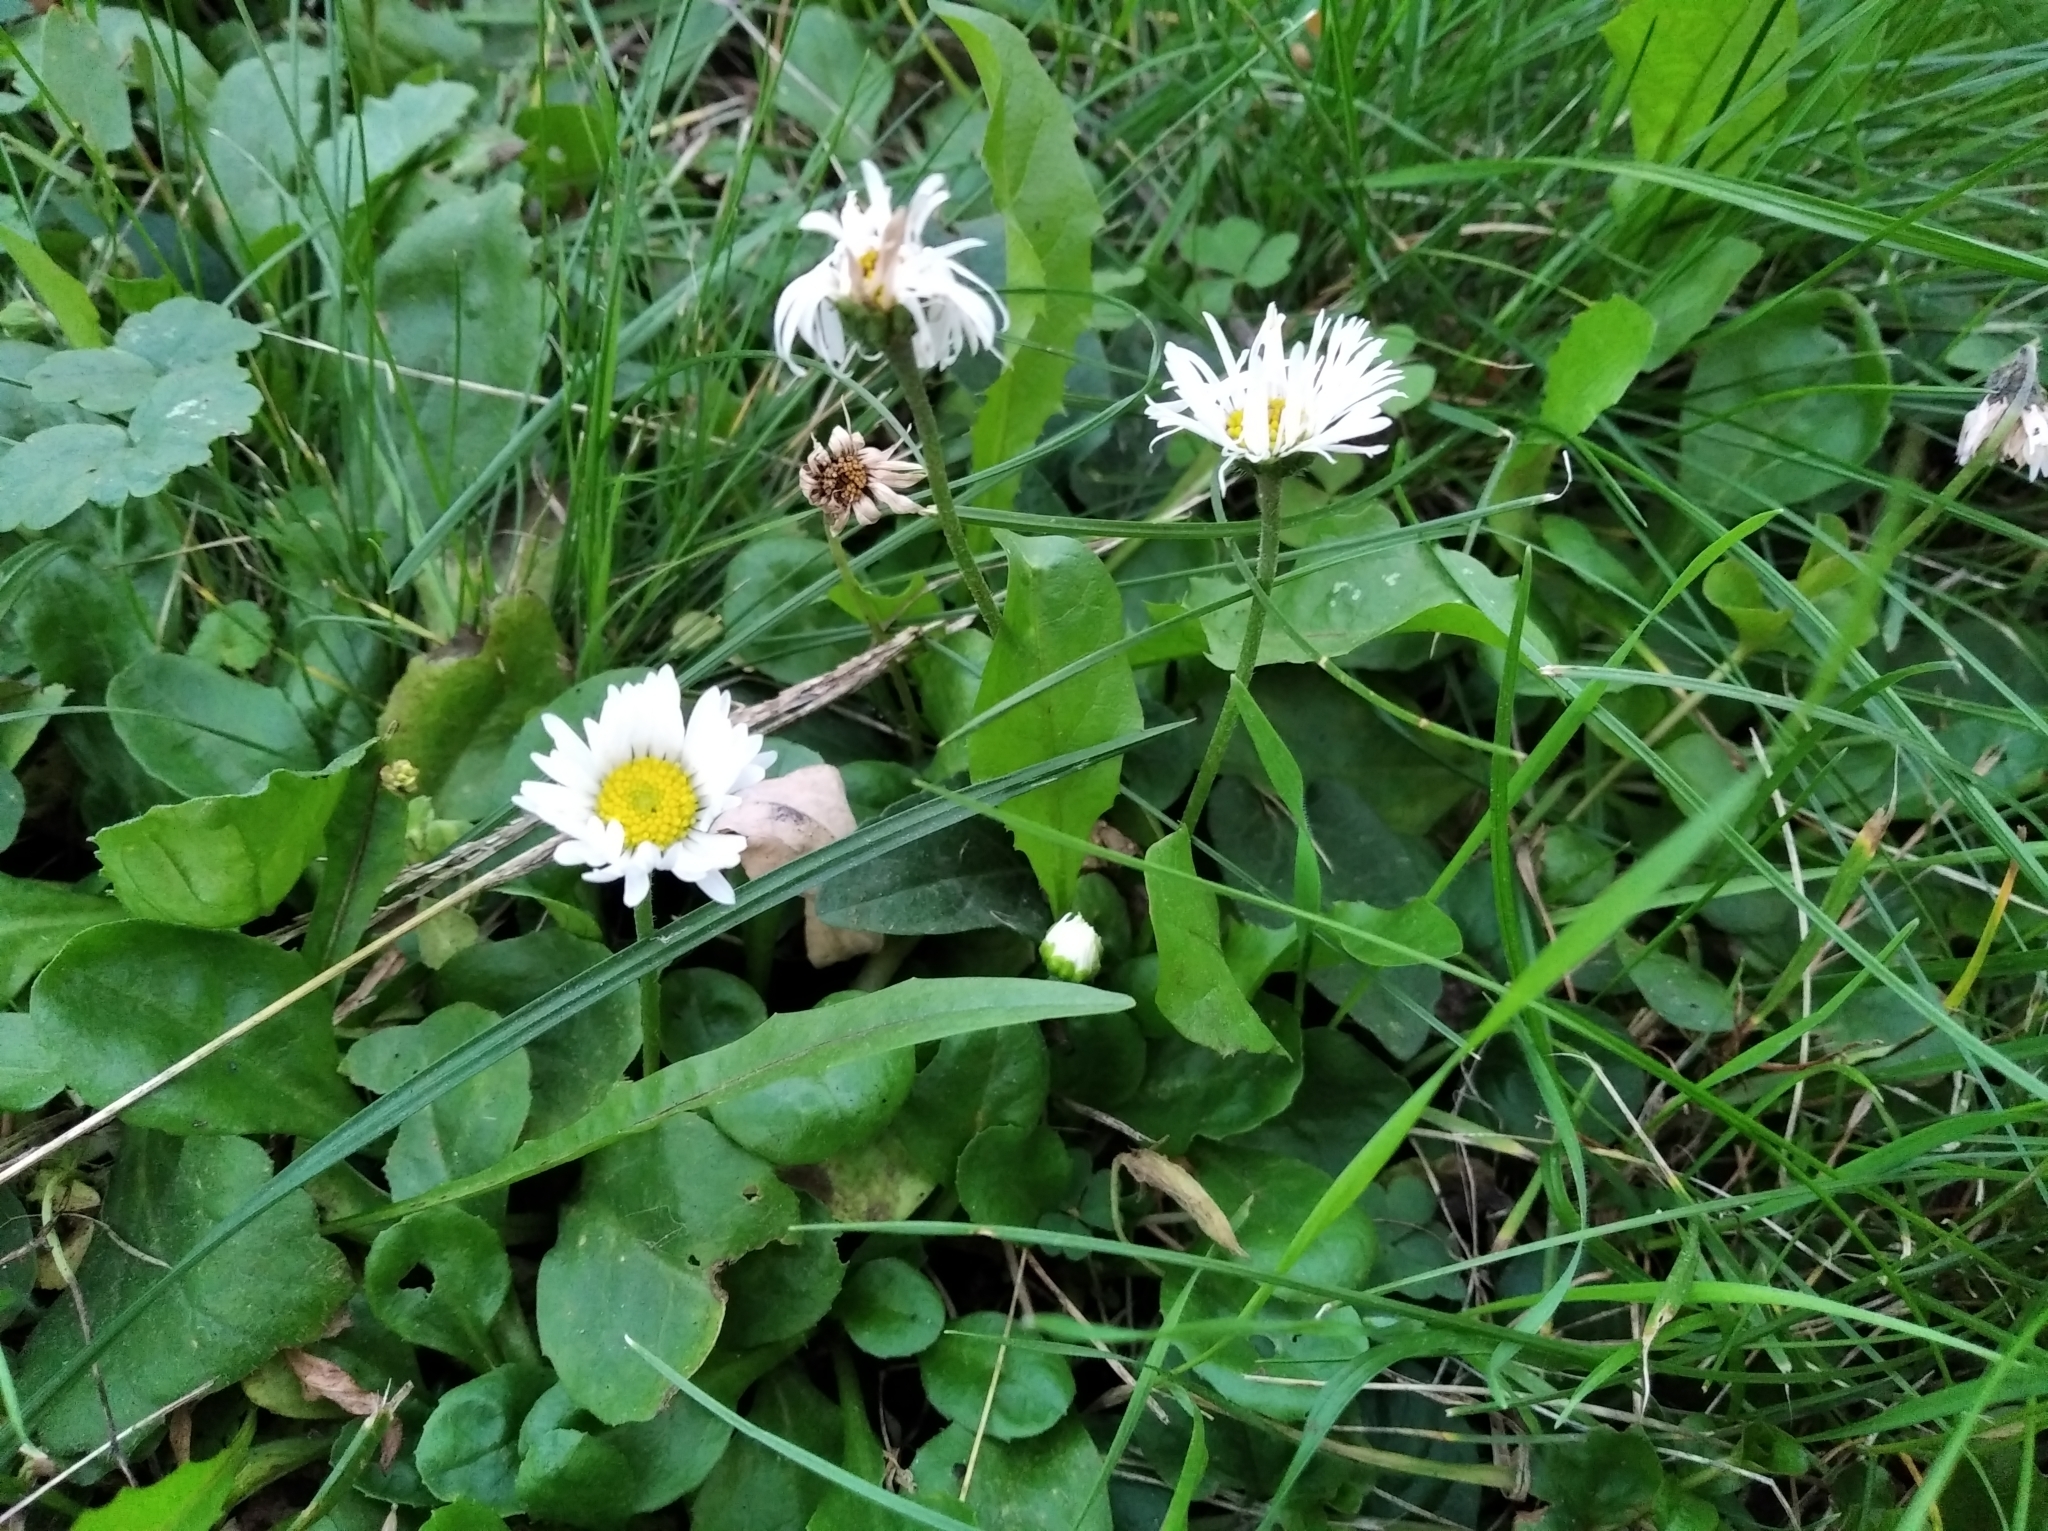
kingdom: Plantae
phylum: Tracheophyta
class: Magnoliopsida
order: Asterales
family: Asteraceae
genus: Bellis
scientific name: Bellis perennis
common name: Lawndaisy
